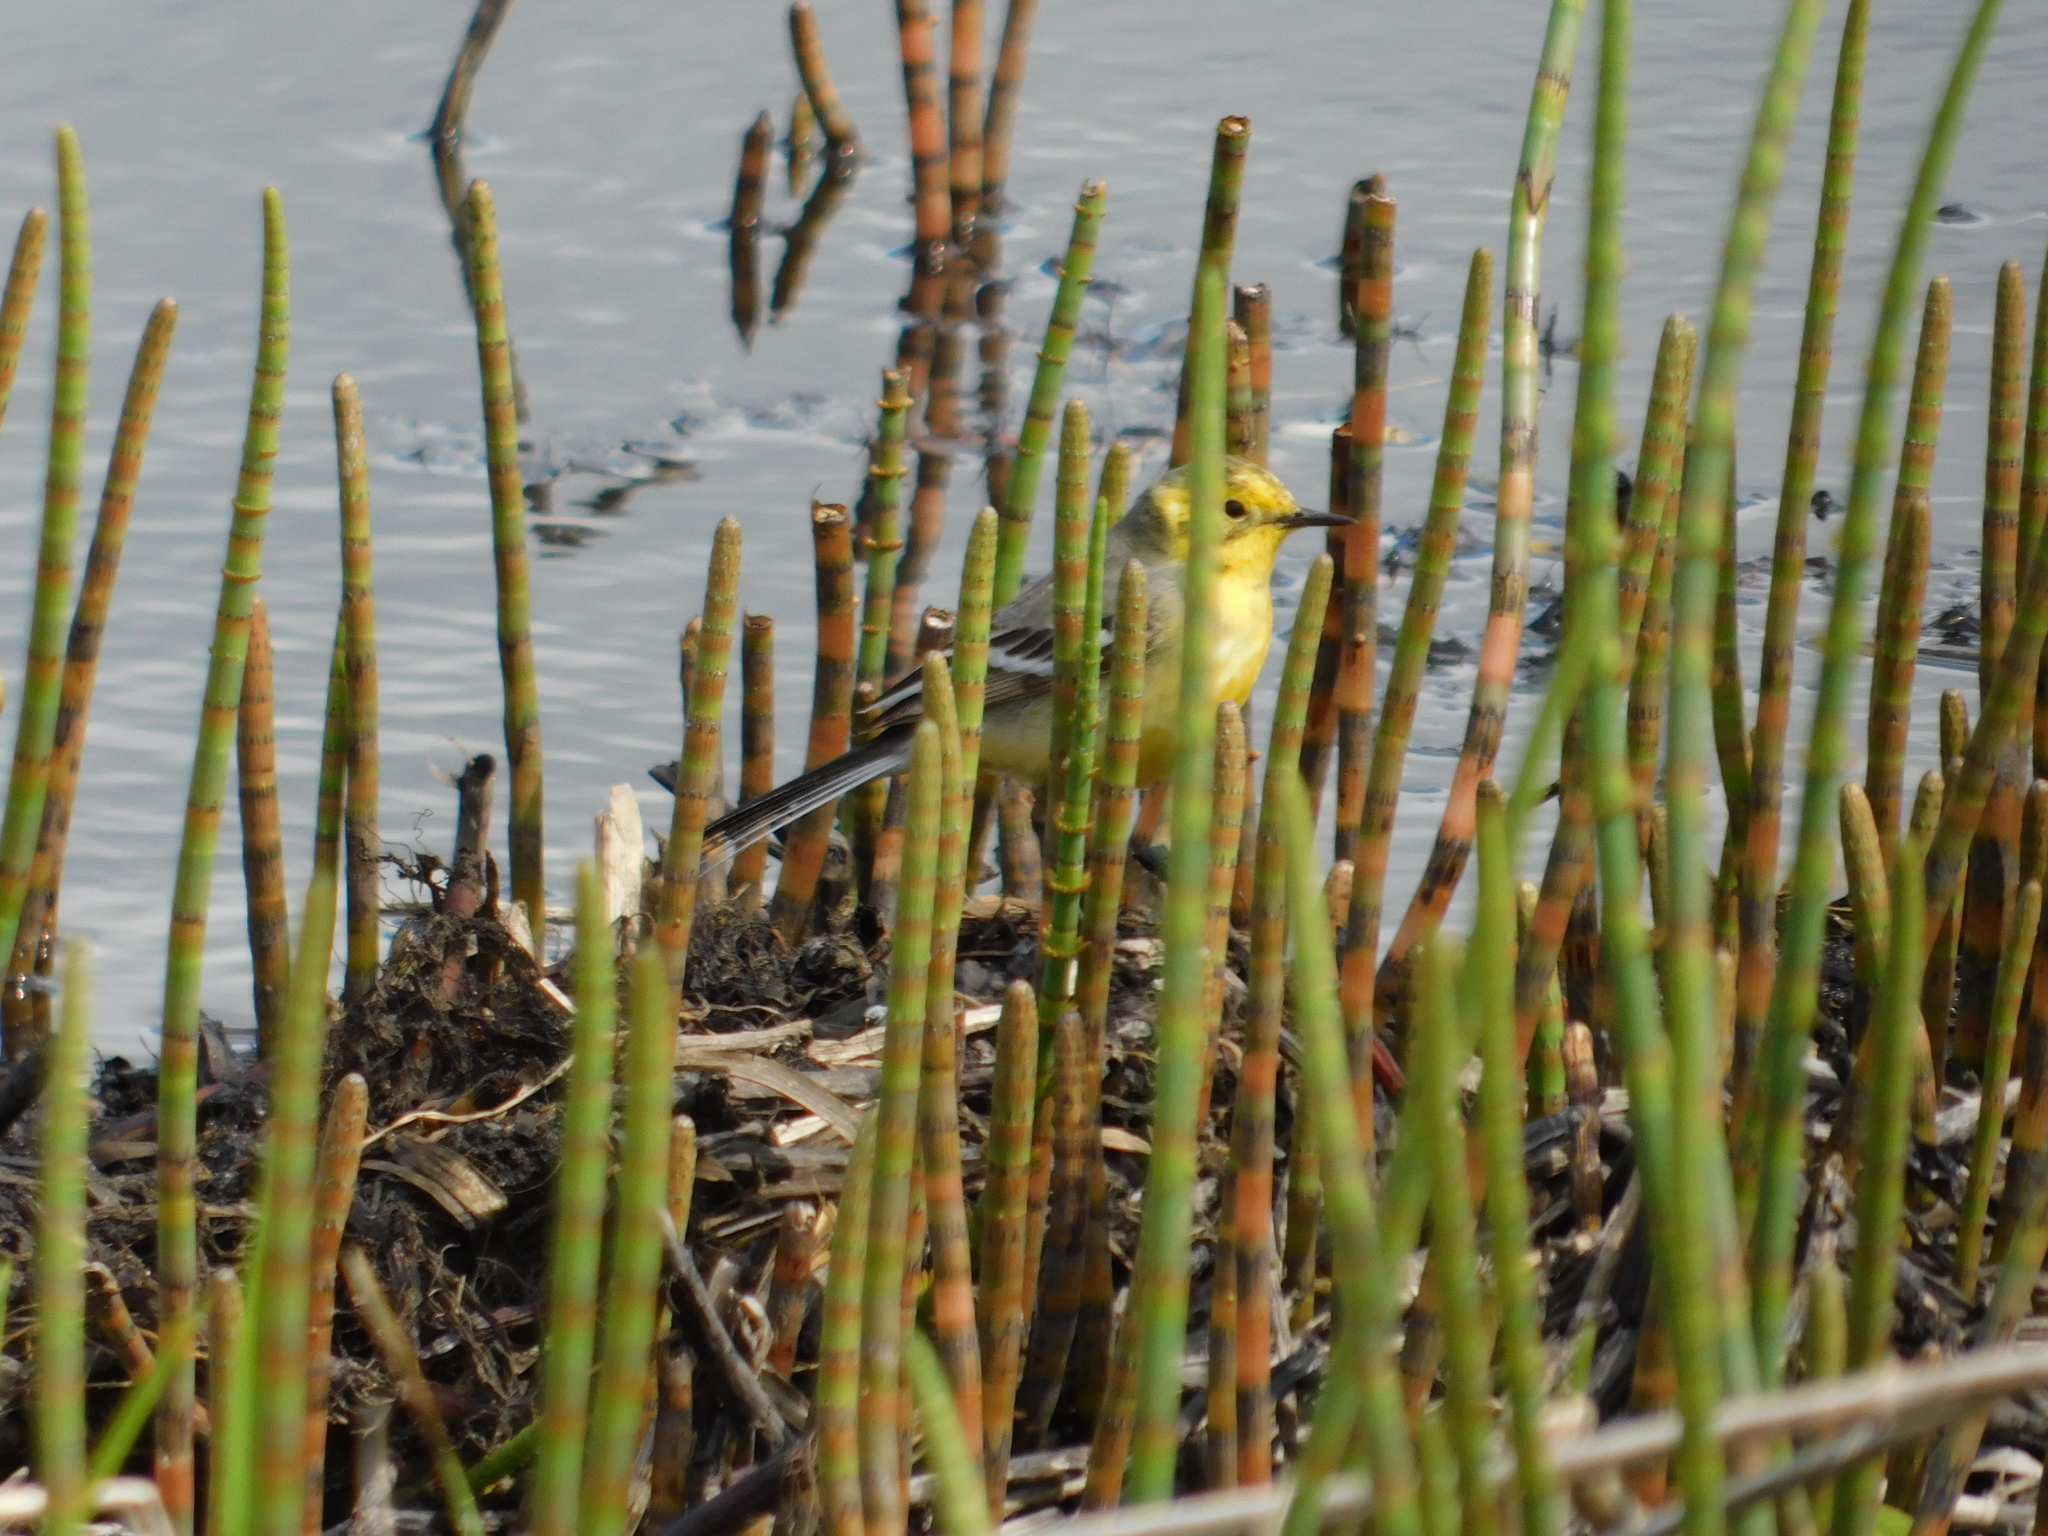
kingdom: Animalia
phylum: Chordata
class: Aves
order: Passeriformes
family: Motacillidae
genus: Motacilla
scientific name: Motacilla citreola
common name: Citrine wagtail
